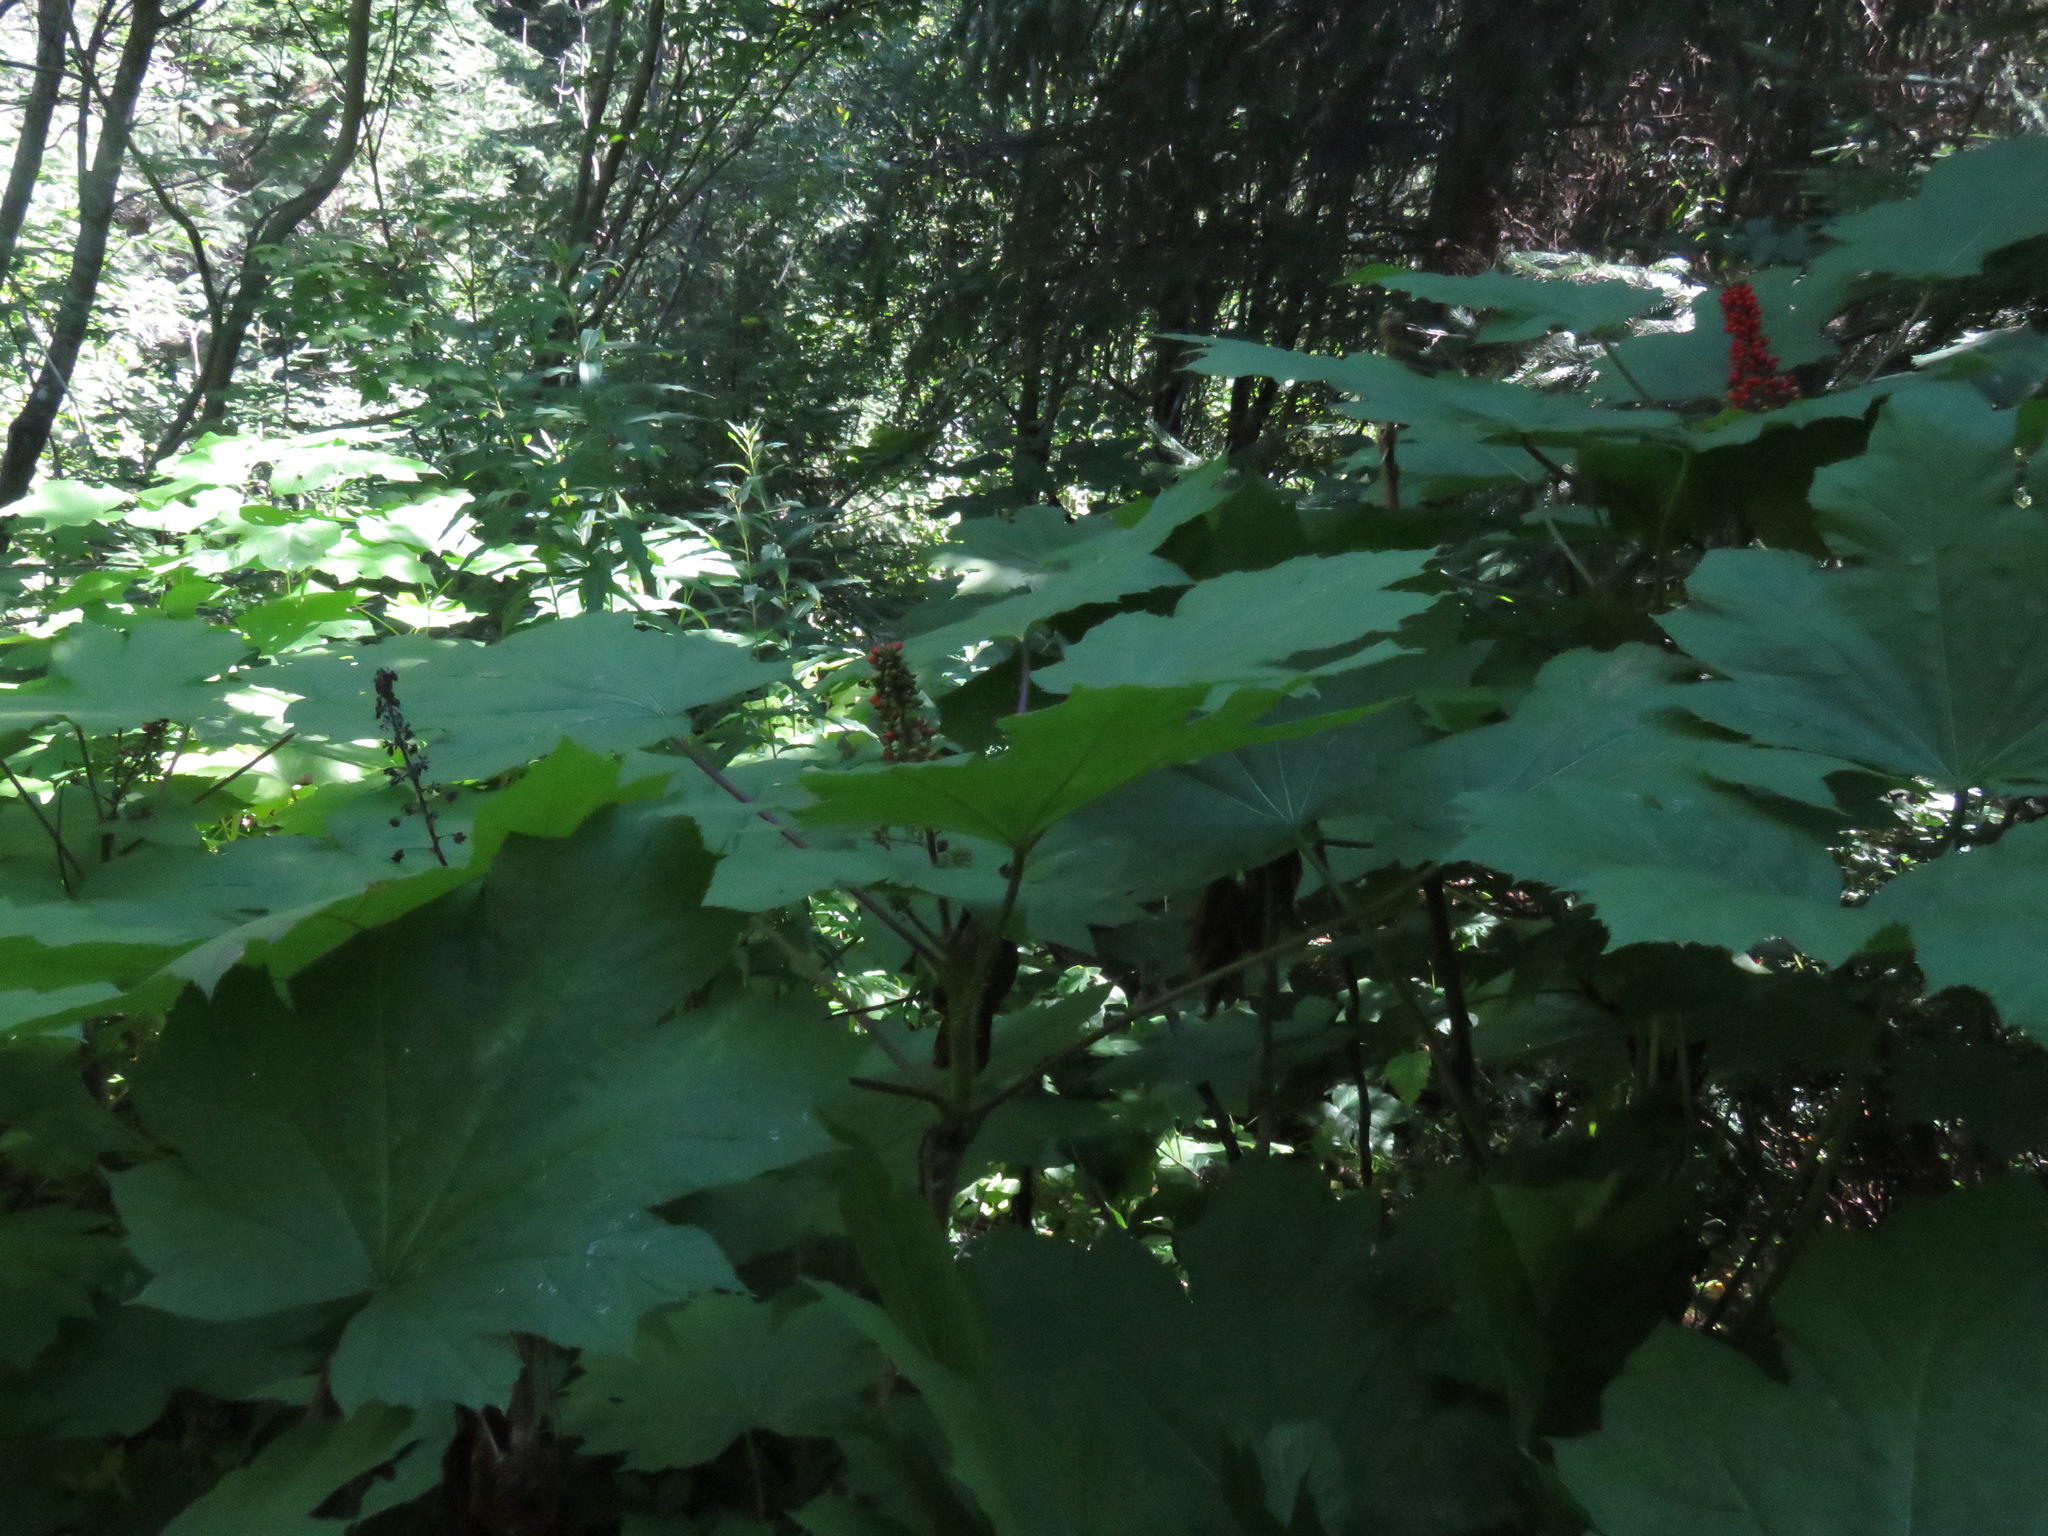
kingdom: Plantae
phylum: Tracheophyta
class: Magnoliopsida
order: Apiales
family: Araliaceae
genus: Oplopanax
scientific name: Oplopanax horridus
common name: Devil's walking-stick
